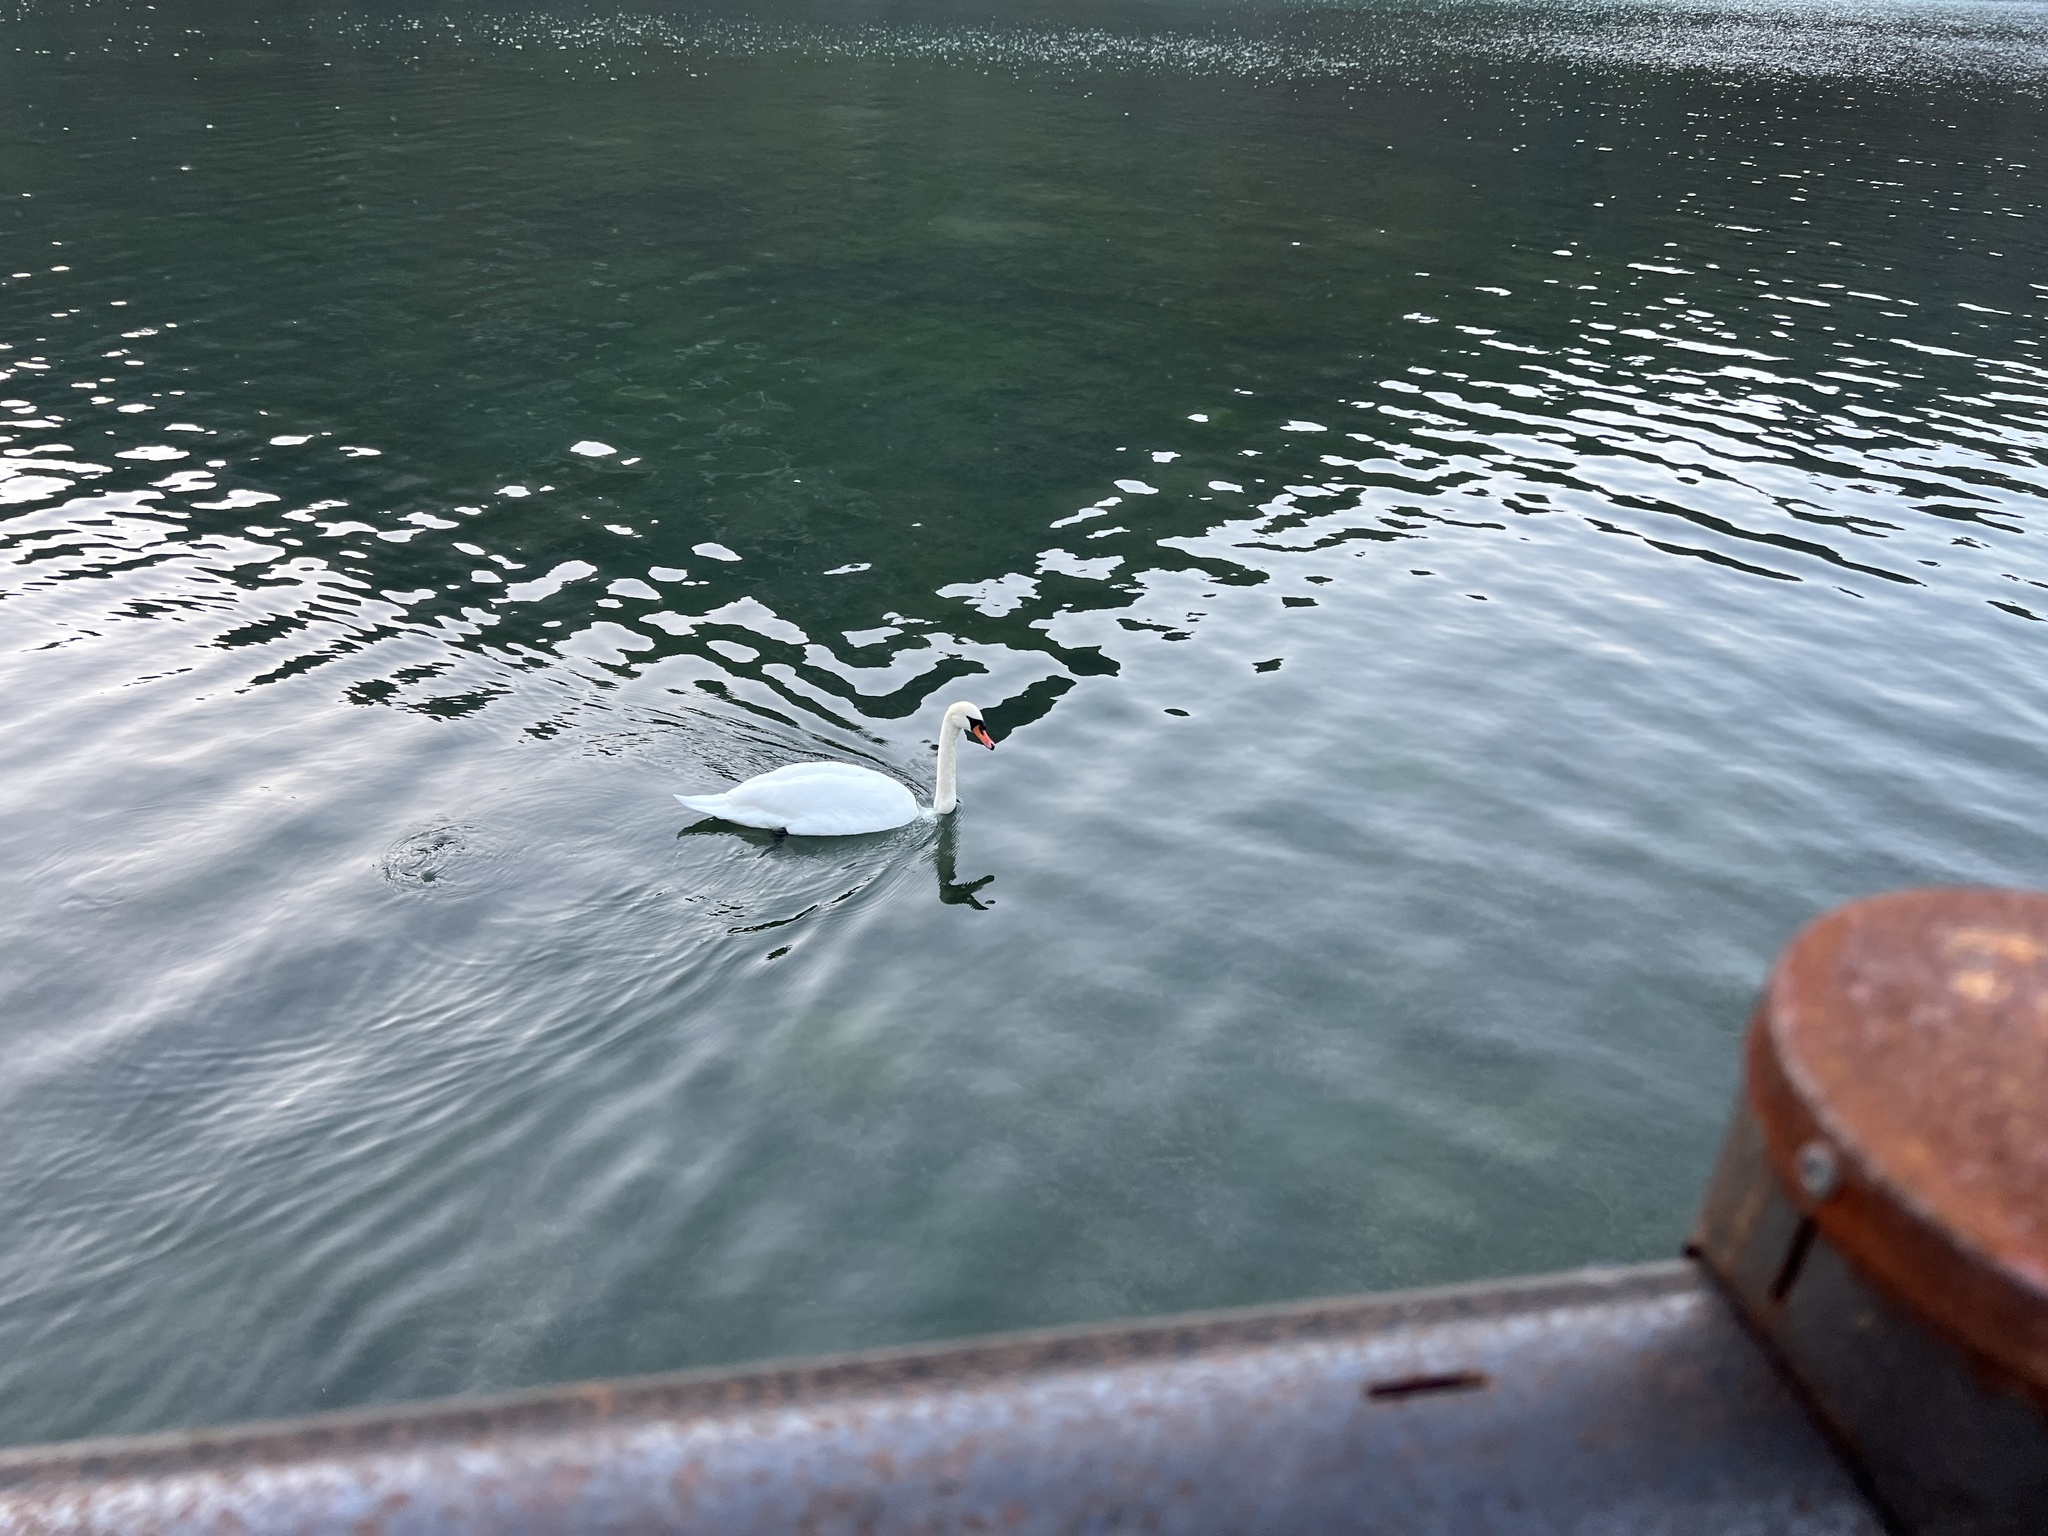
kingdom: Animalia
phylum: Chordata
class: Aves
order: Anseriformes
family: Anatidae
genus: Cygnus
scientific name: Cygnus olor
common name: Mute swan
